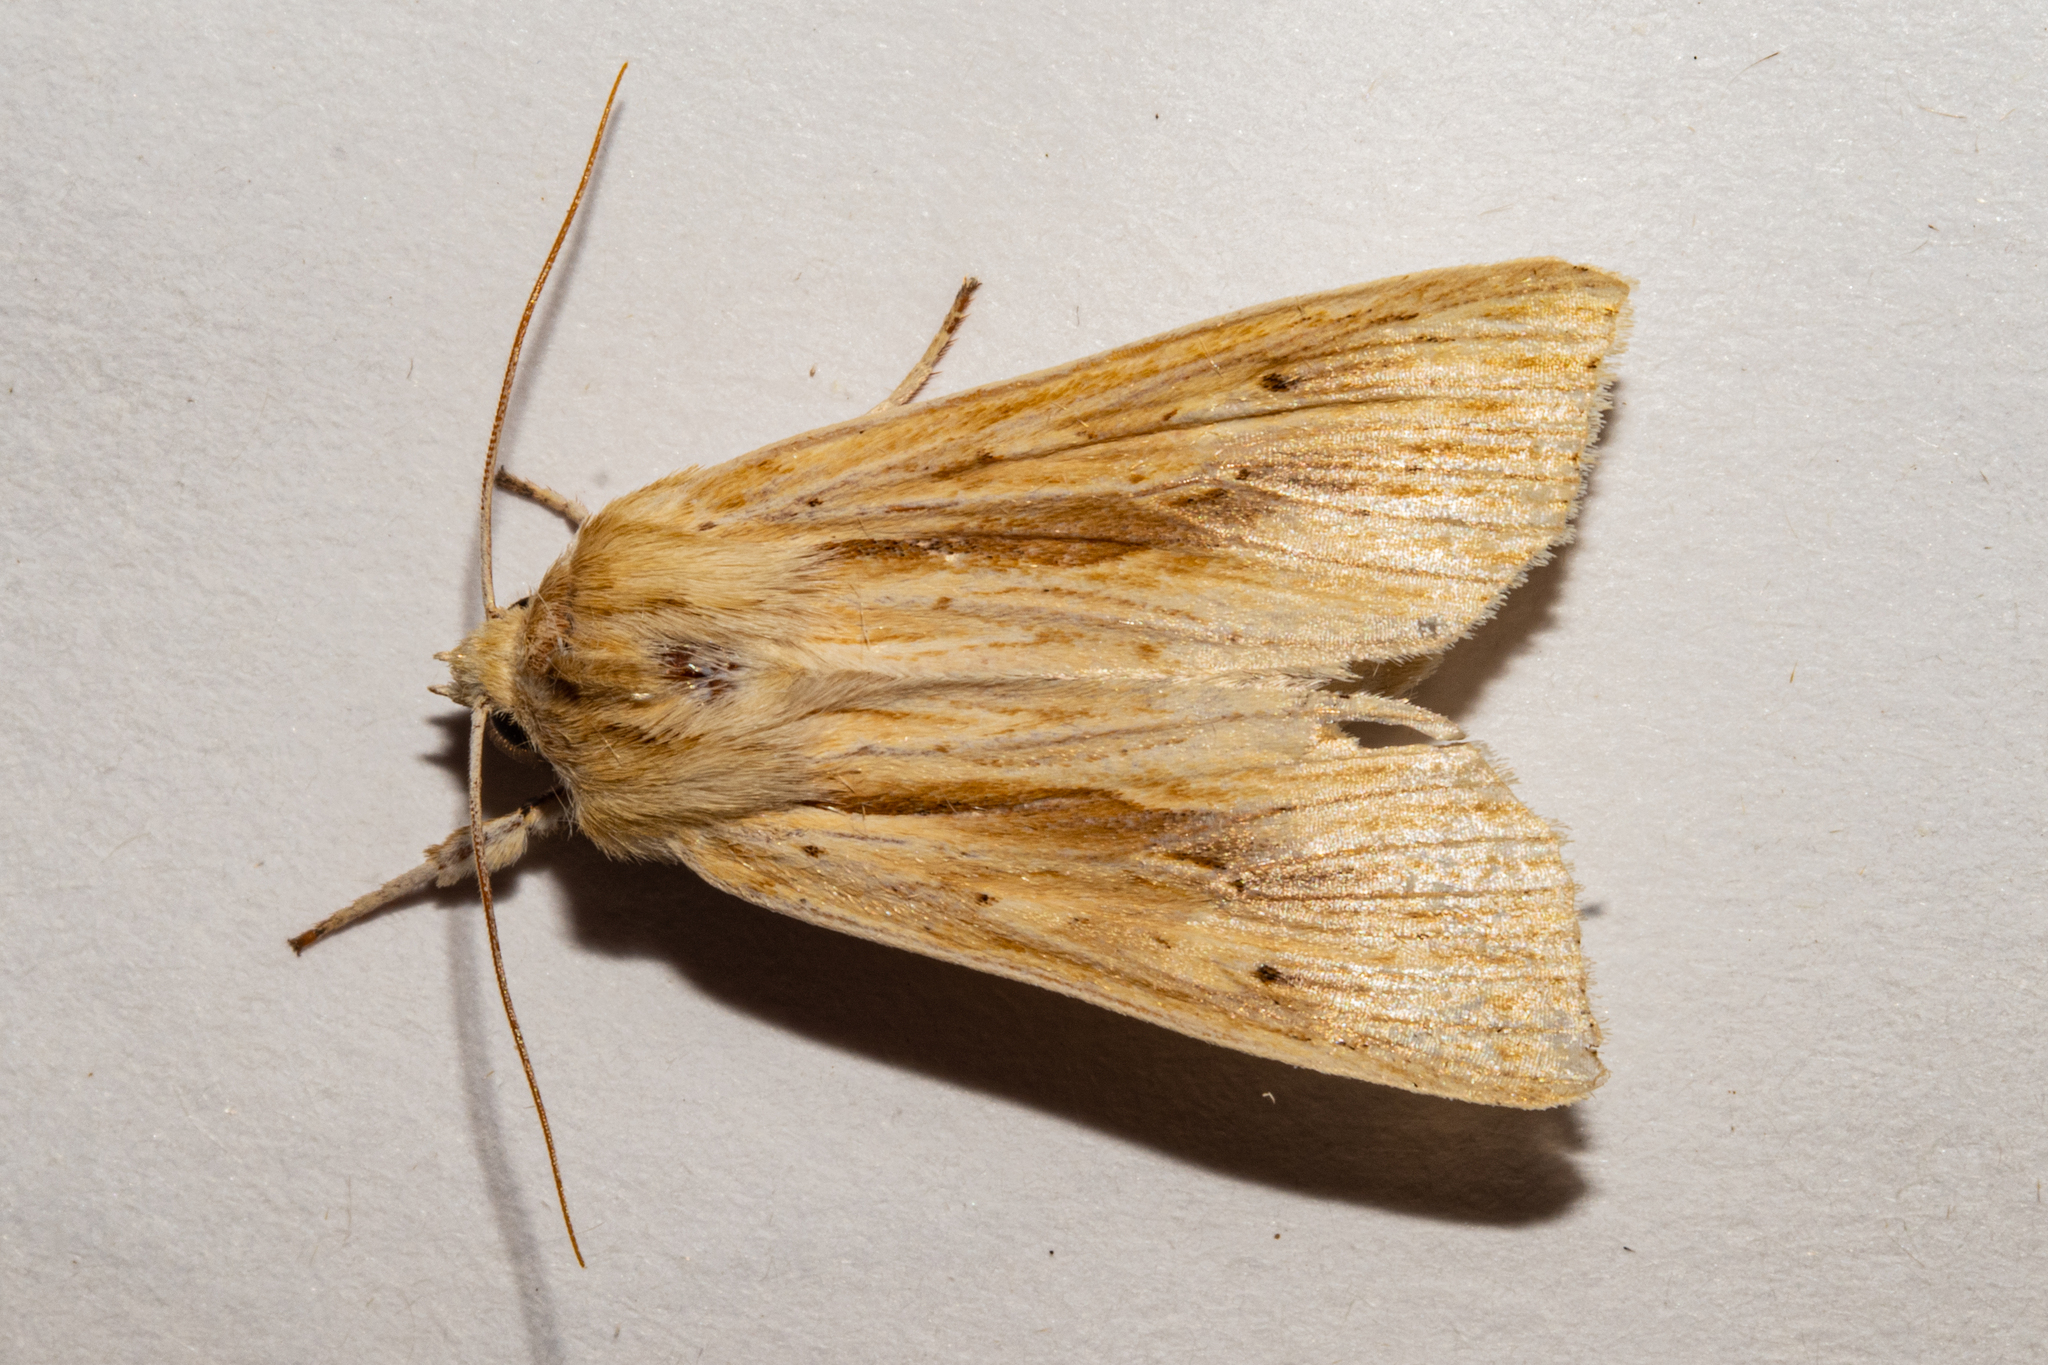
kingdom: Animalia
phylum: Arthropoda
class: Insecta
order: Lepidoptera
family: Noctuidae
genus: Ichneutica
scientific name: Ichneutica semivittata
